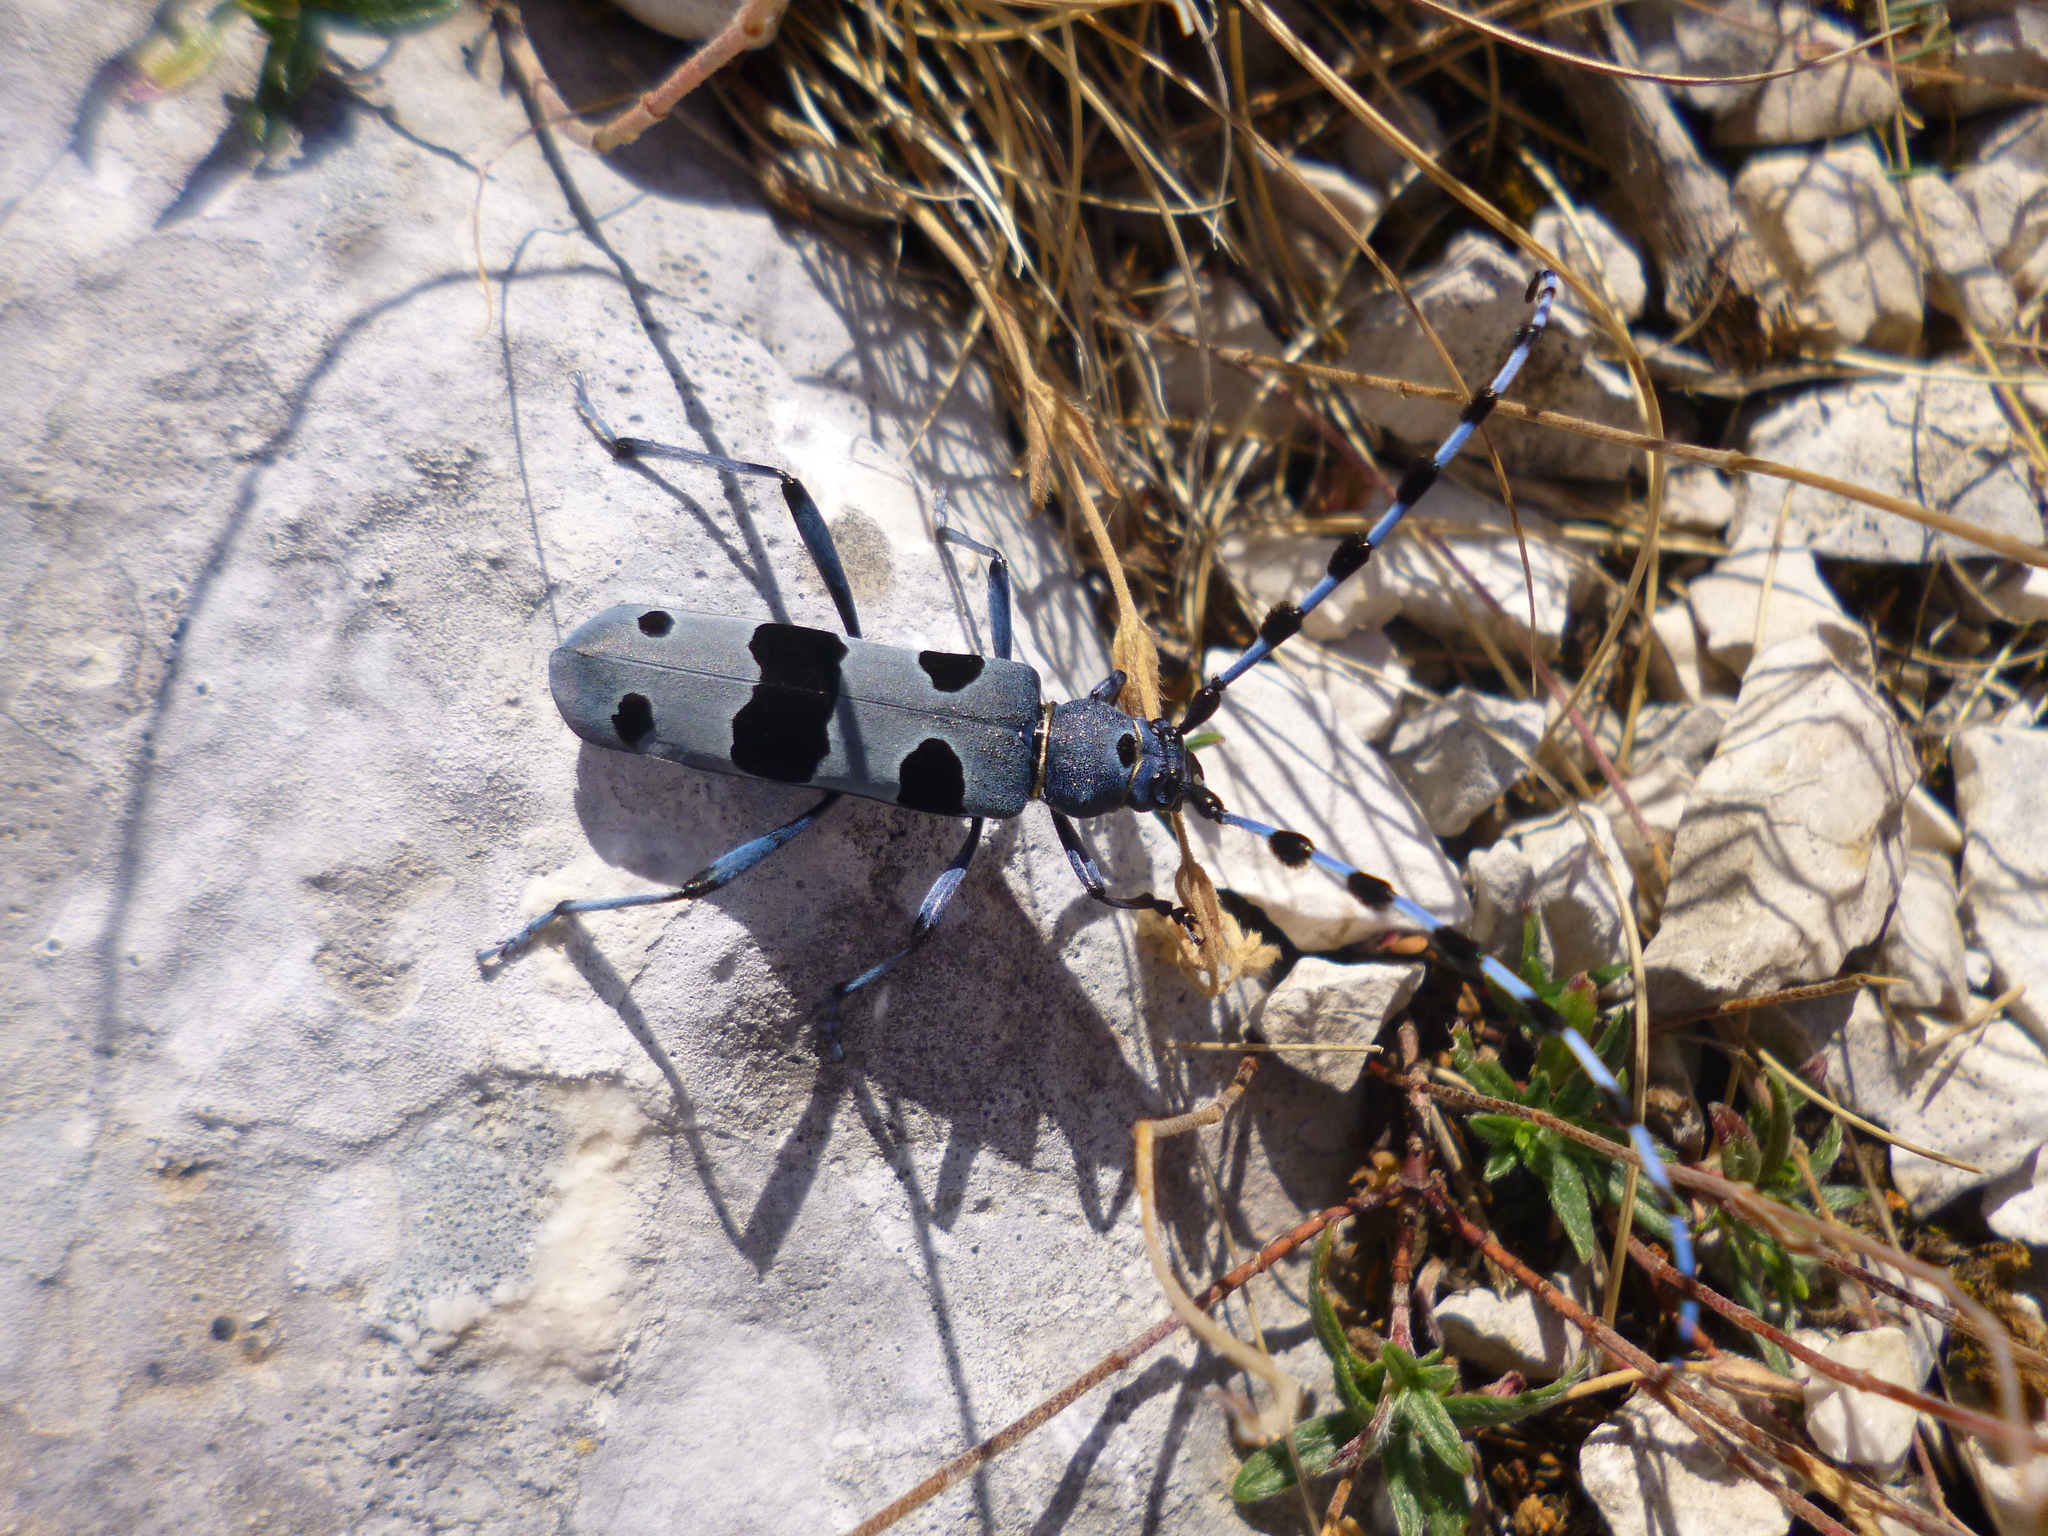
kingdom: Animalia
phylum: Arthropoda
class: Insecta
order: Coleoptera
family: Cerambycidae
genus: Rosalia
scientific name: Rosalia alpina
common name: Rosalia longicorn
